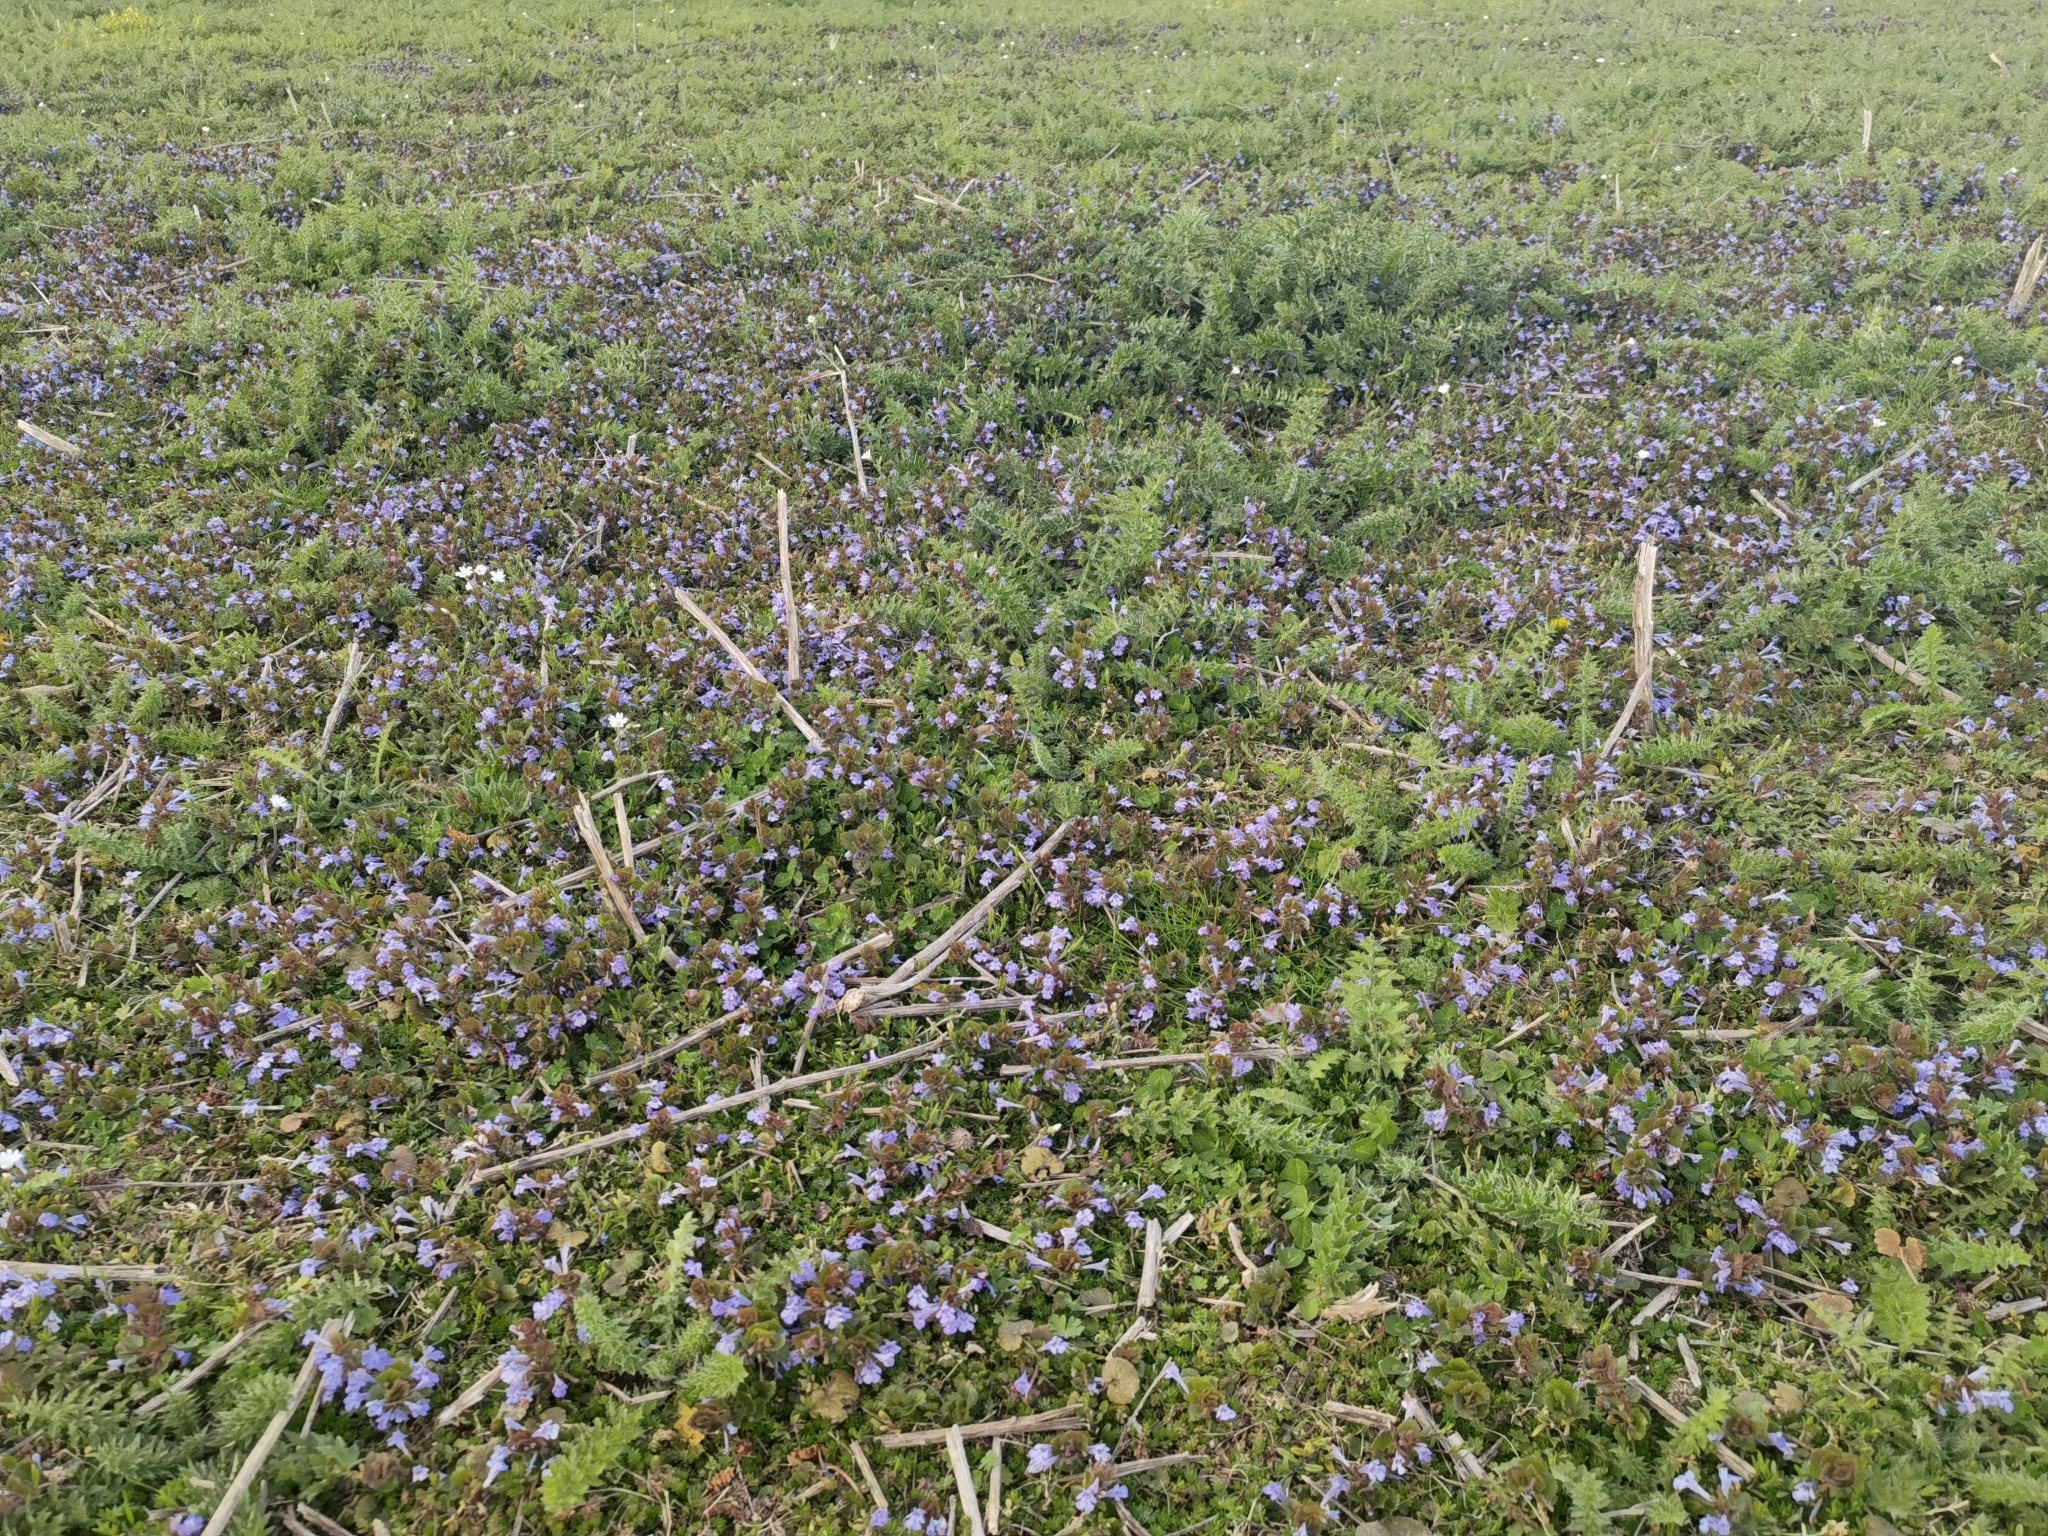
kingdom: Plantae
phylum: Tracheophyta
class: Magnoliopsida
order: Lamiales
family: Lamiaceae
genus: Glechoma
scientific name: Glechoma hederacea
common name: Ground ivy
